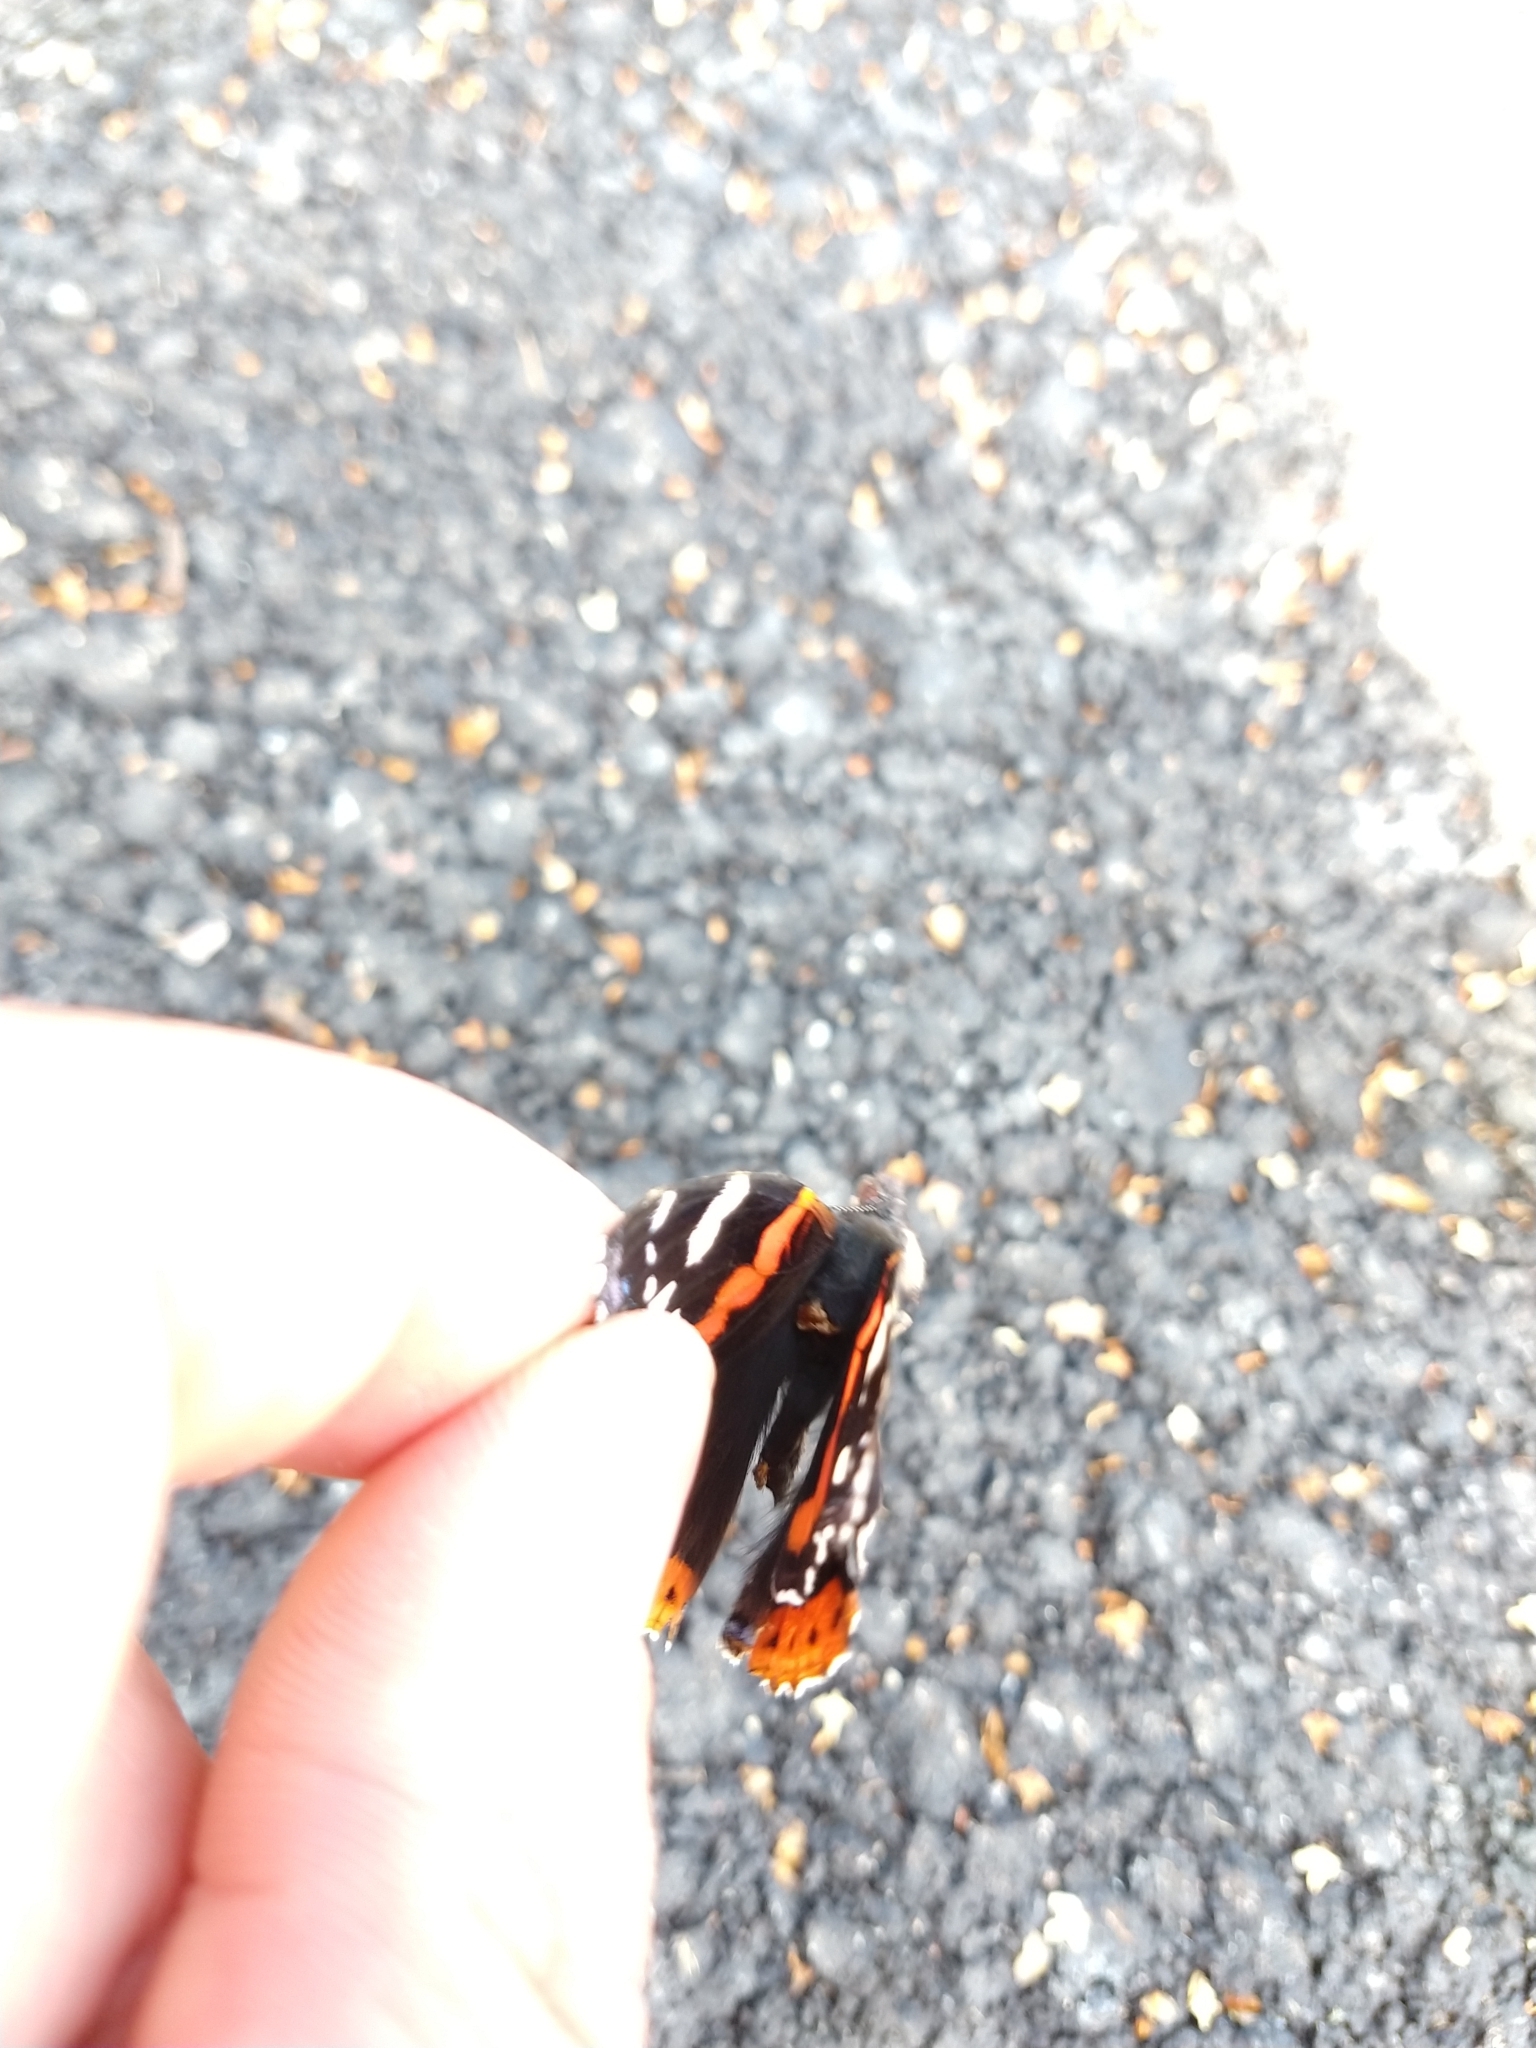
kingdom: Animalia
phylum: Arthropoda
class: Insecta
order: Lepidoptera
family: Nymphalidae
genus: Vanessa
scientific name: Vanessa atalanta
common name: Red admiral
